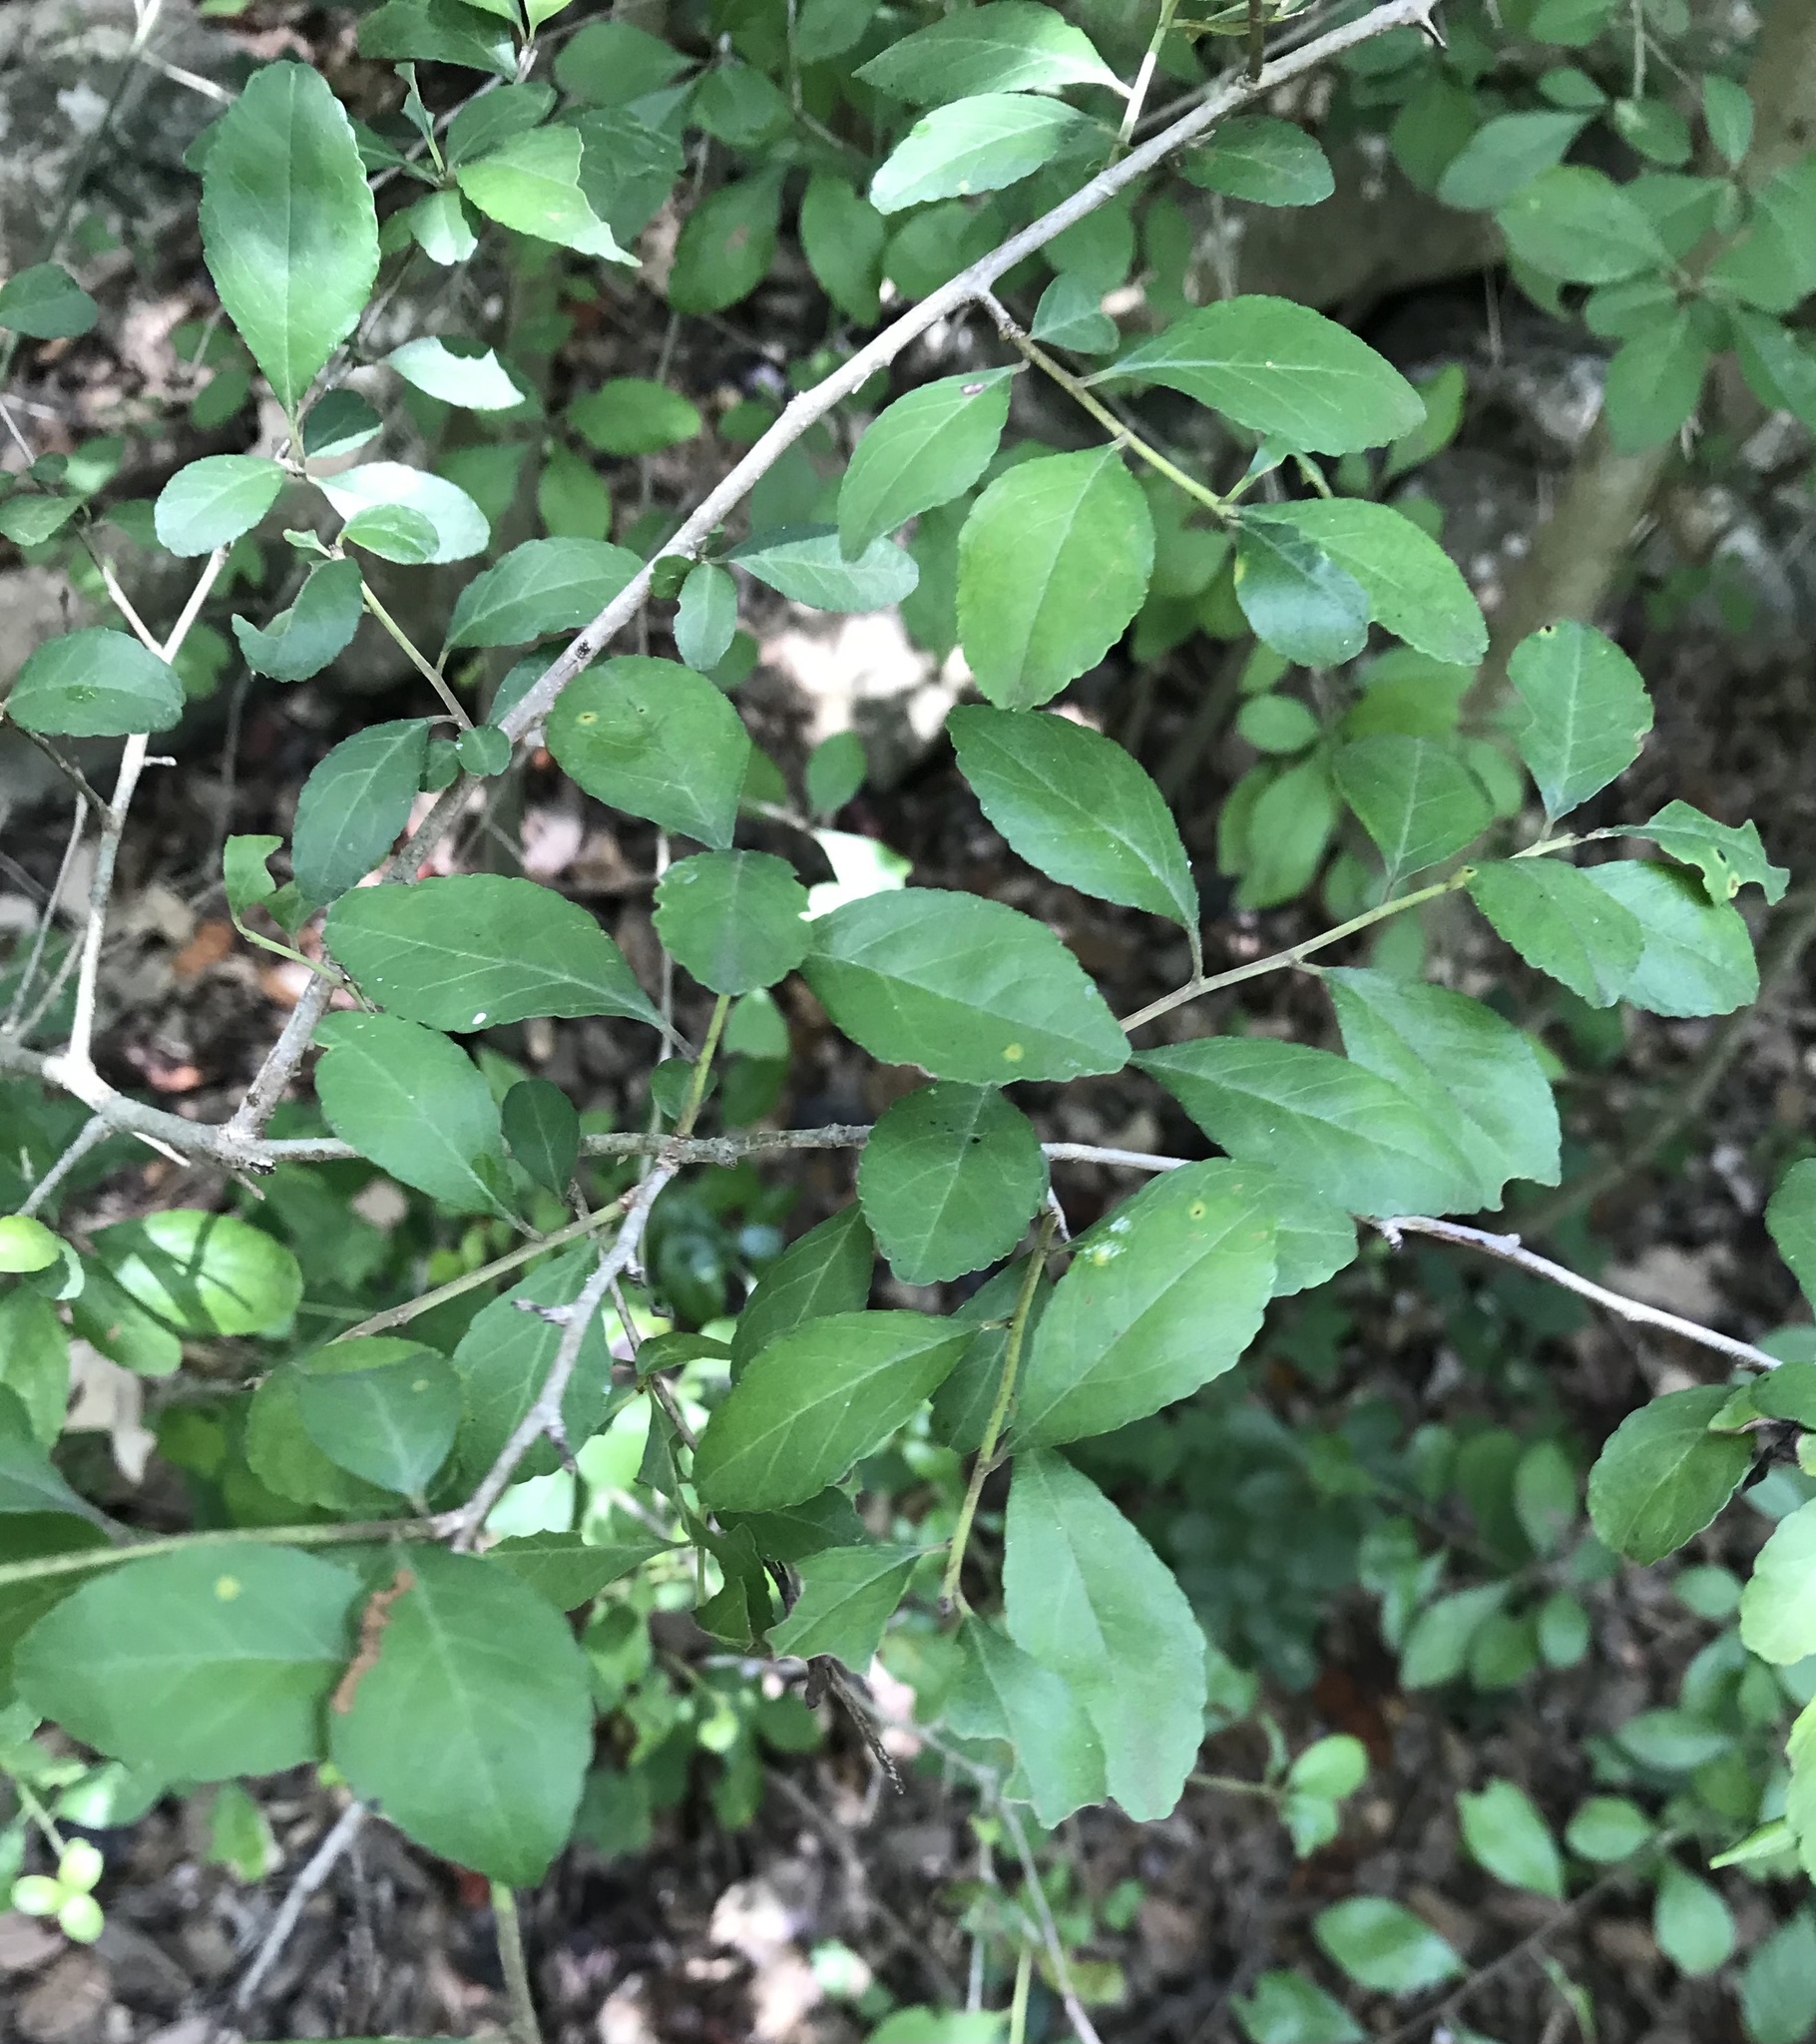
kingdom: Plantae
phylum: Tracheophyta
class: Magnoliopsida
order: Aquifoliales
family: Aquifoliaceae
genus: Ilex
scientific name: Ilex decidua
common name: Possum-haw
